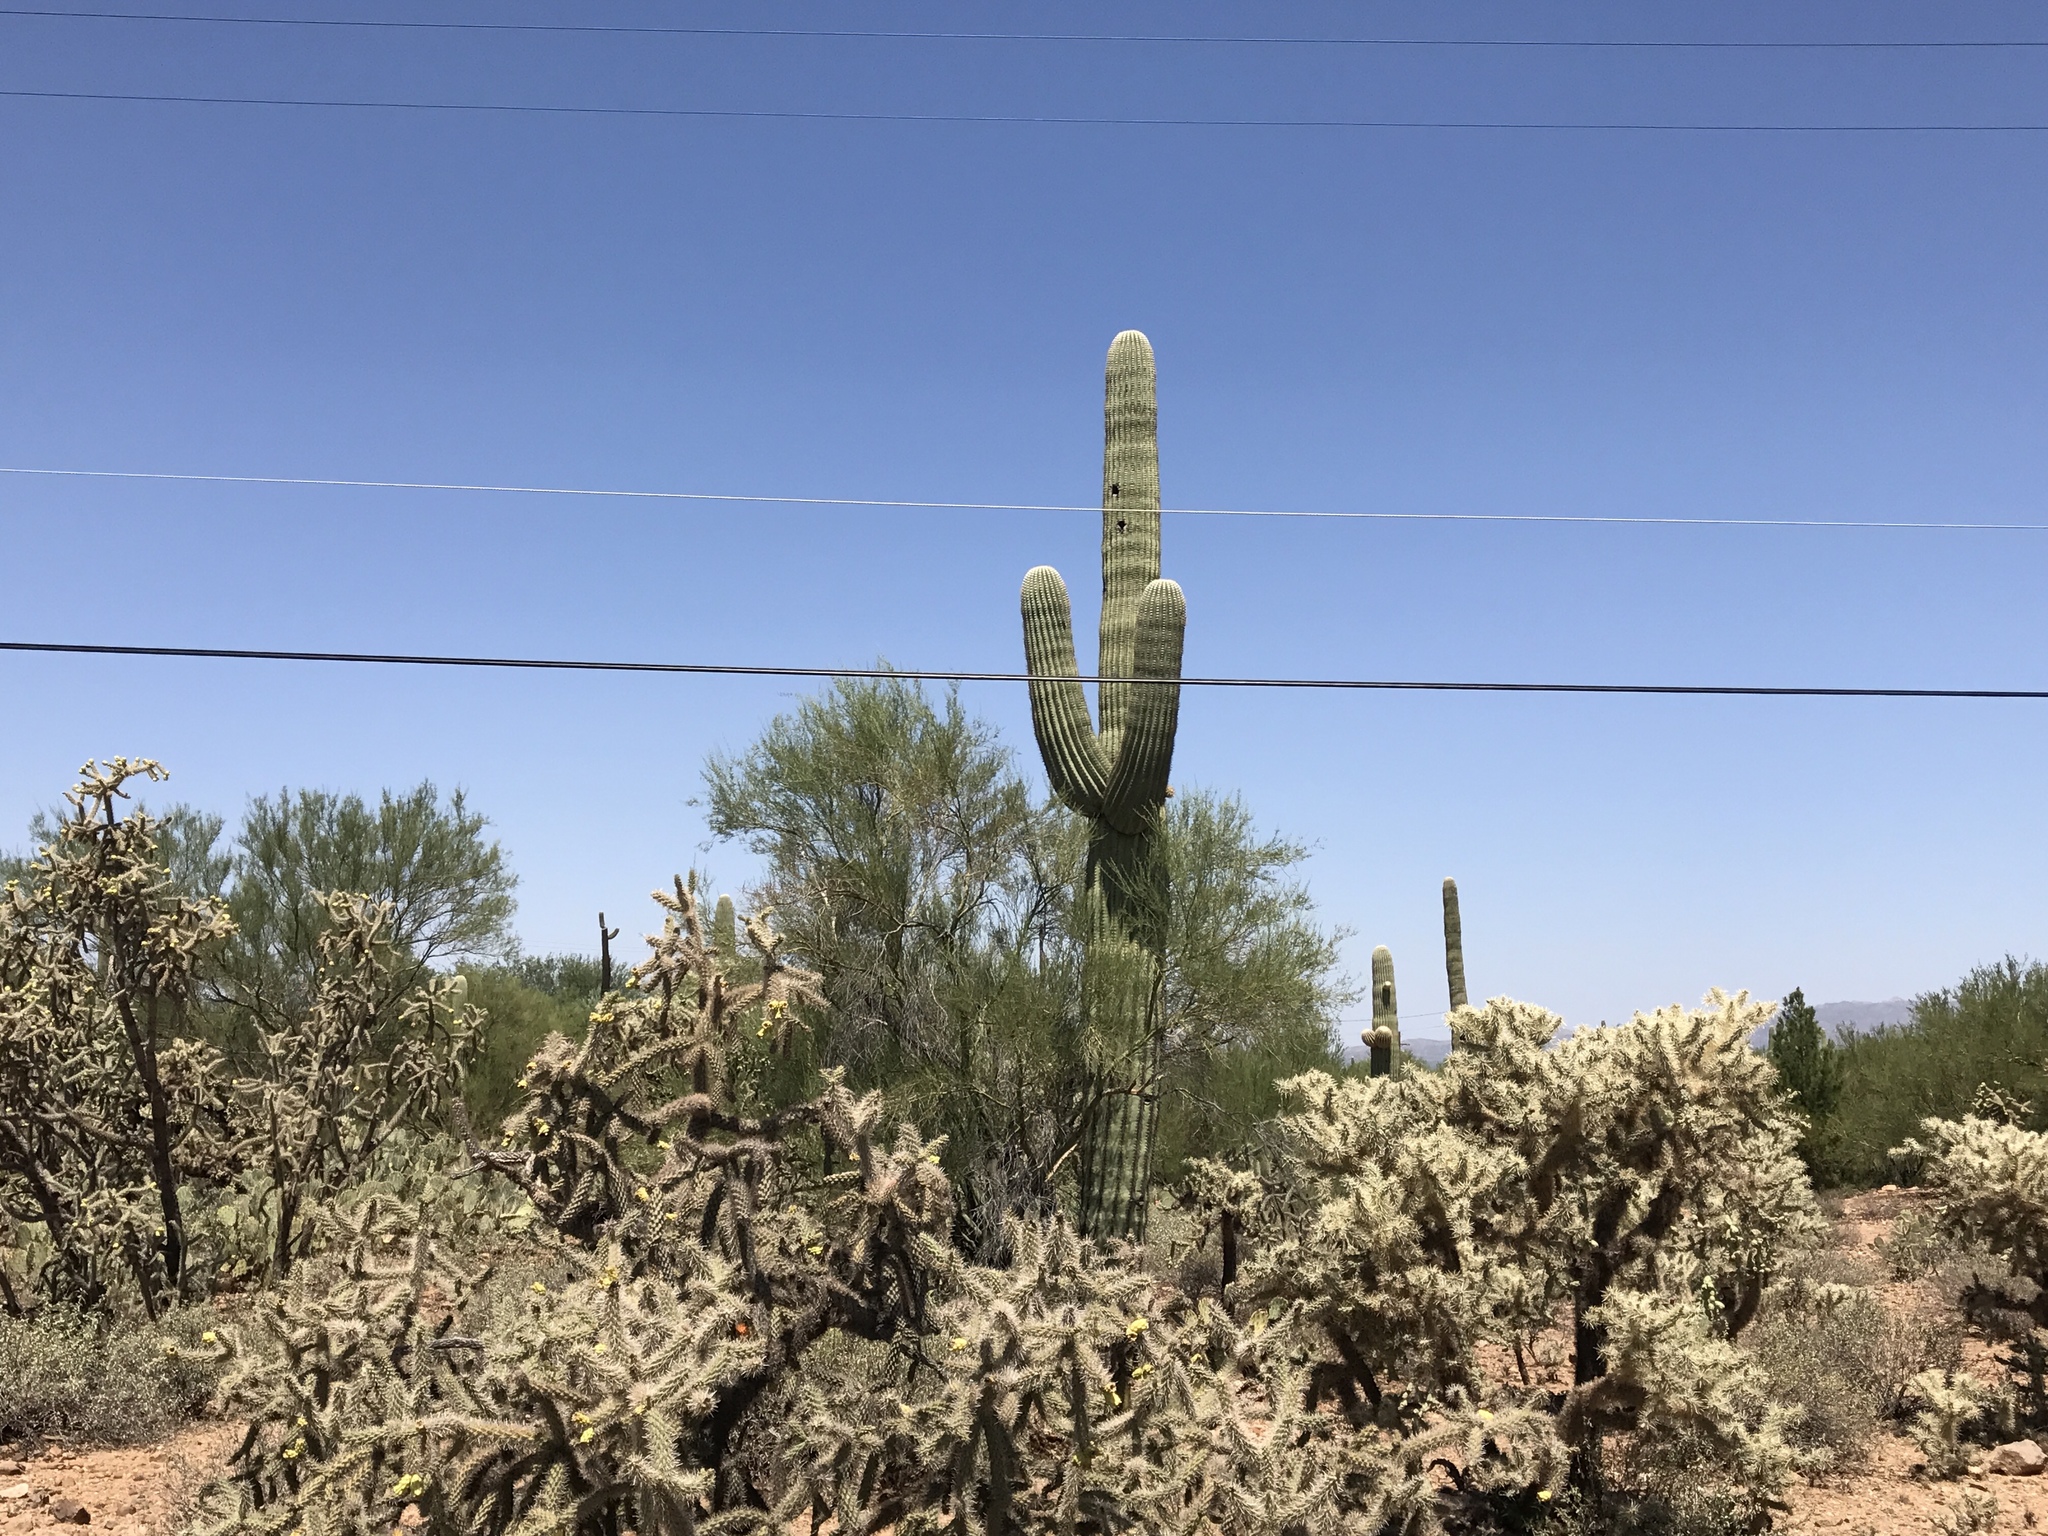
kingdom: Plantae
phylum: Tracheophyta
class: Magnoliopsida
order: Caryophyllales
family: Cactaceae
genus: Carnegiea
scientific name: Carnegiea gigantea
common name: Saguaro
